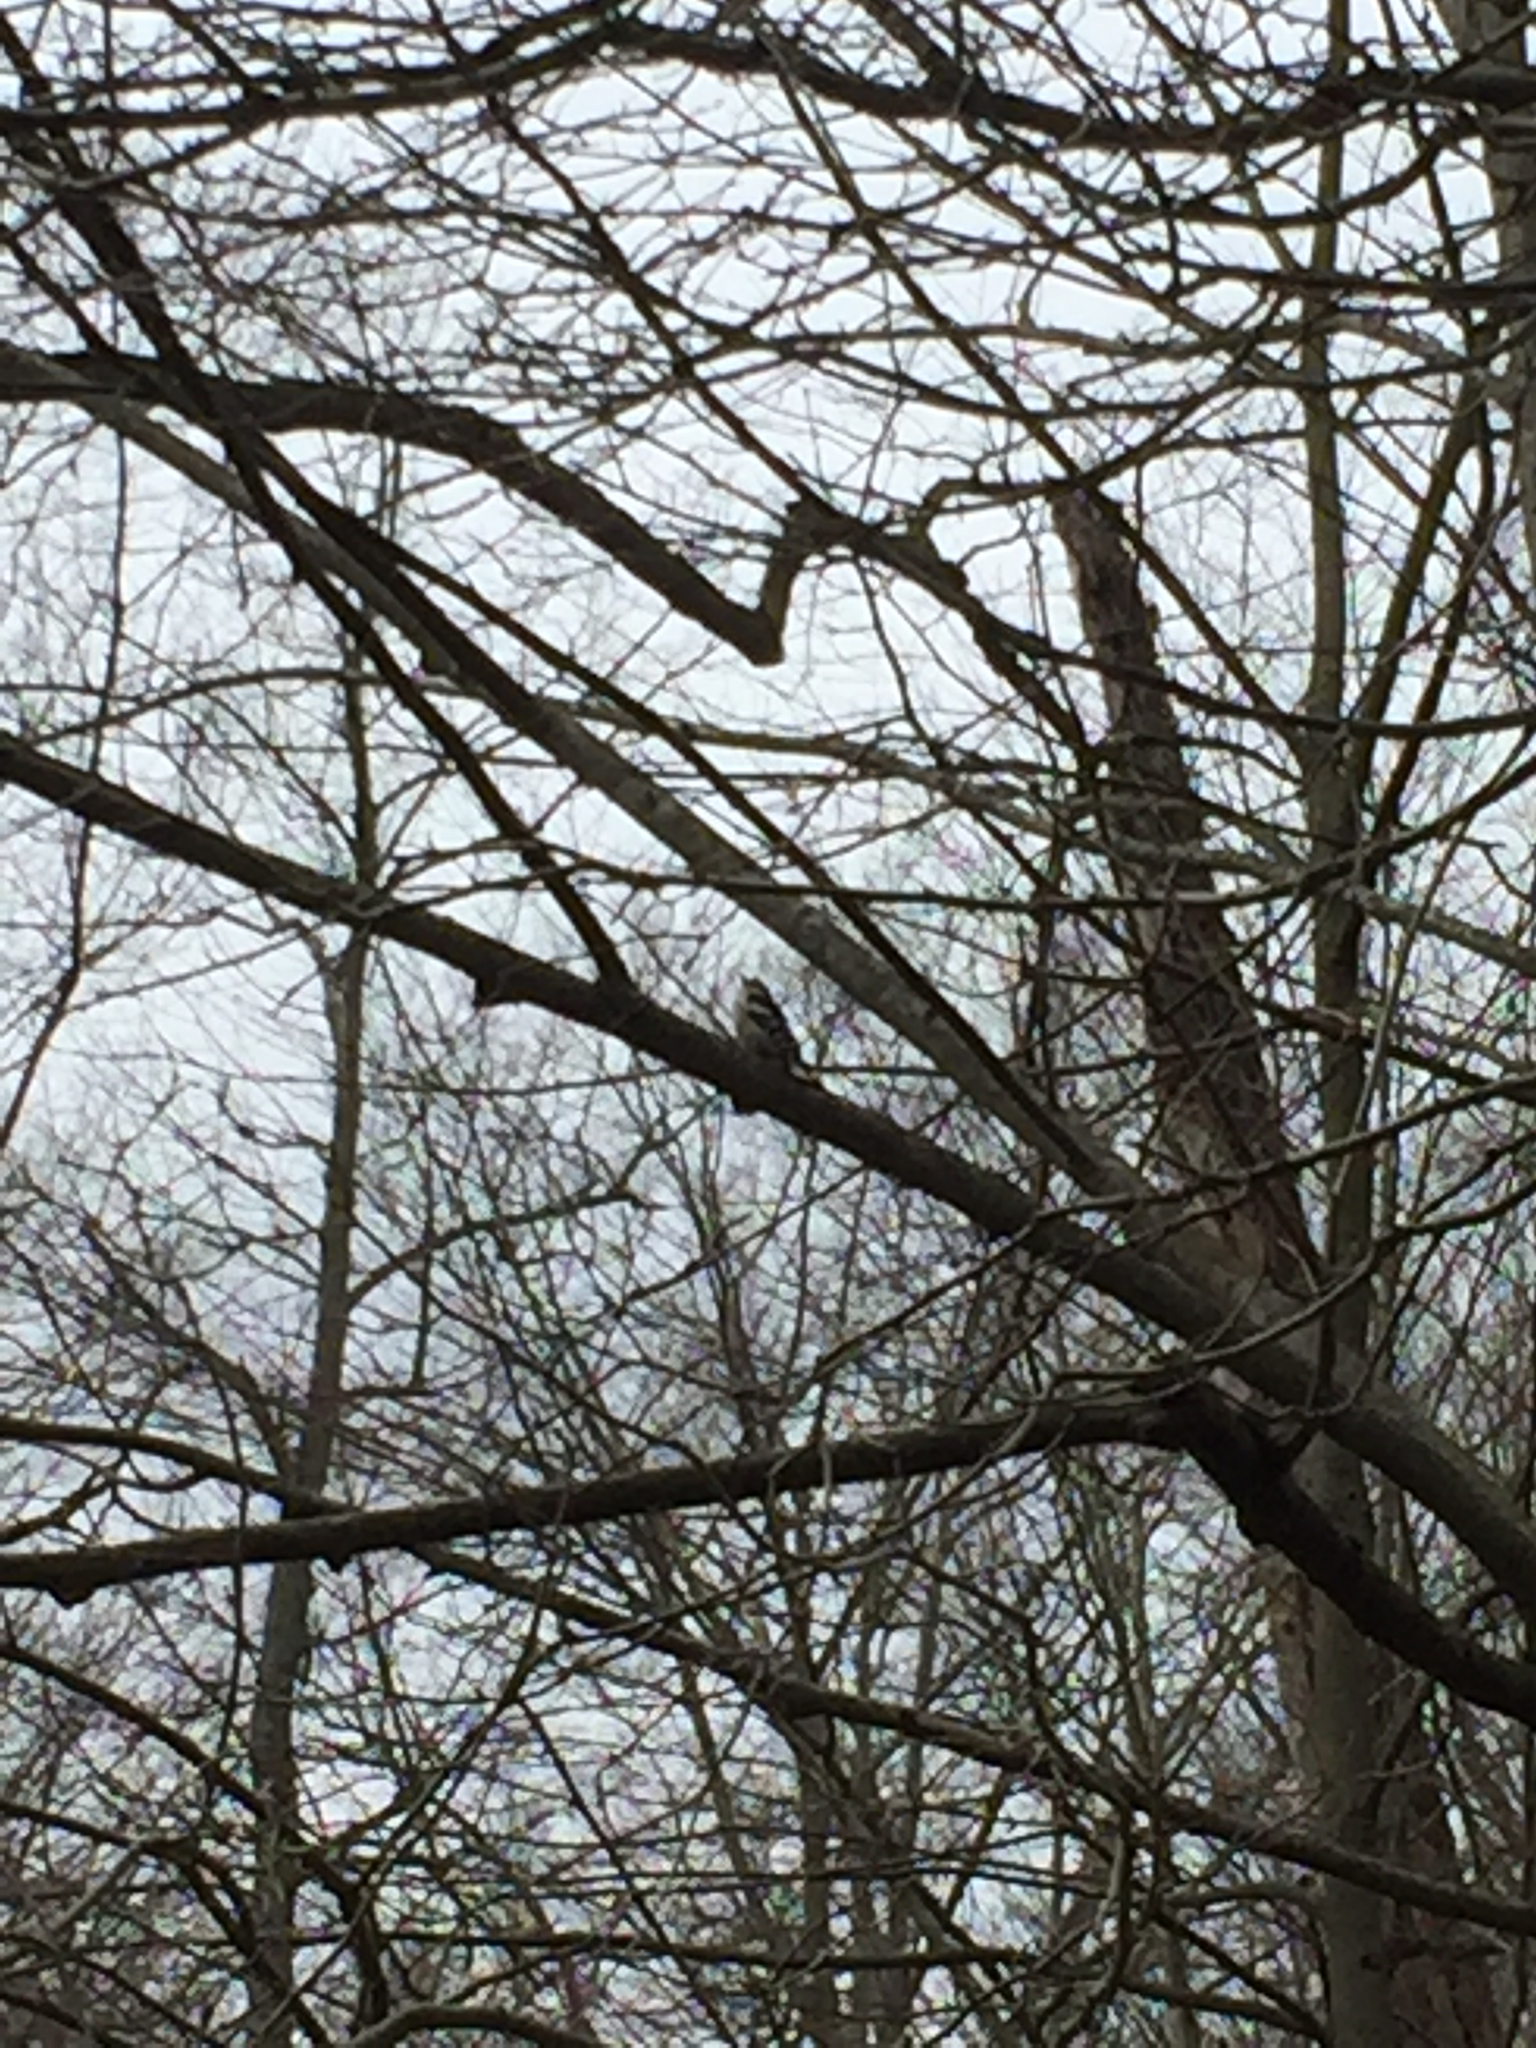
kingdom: Animalia
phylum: Chordata
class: Aves
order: Piciformes
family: Picidae
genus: Dryobates
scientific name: Dryobates pubescens
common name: Downy woodpecker
